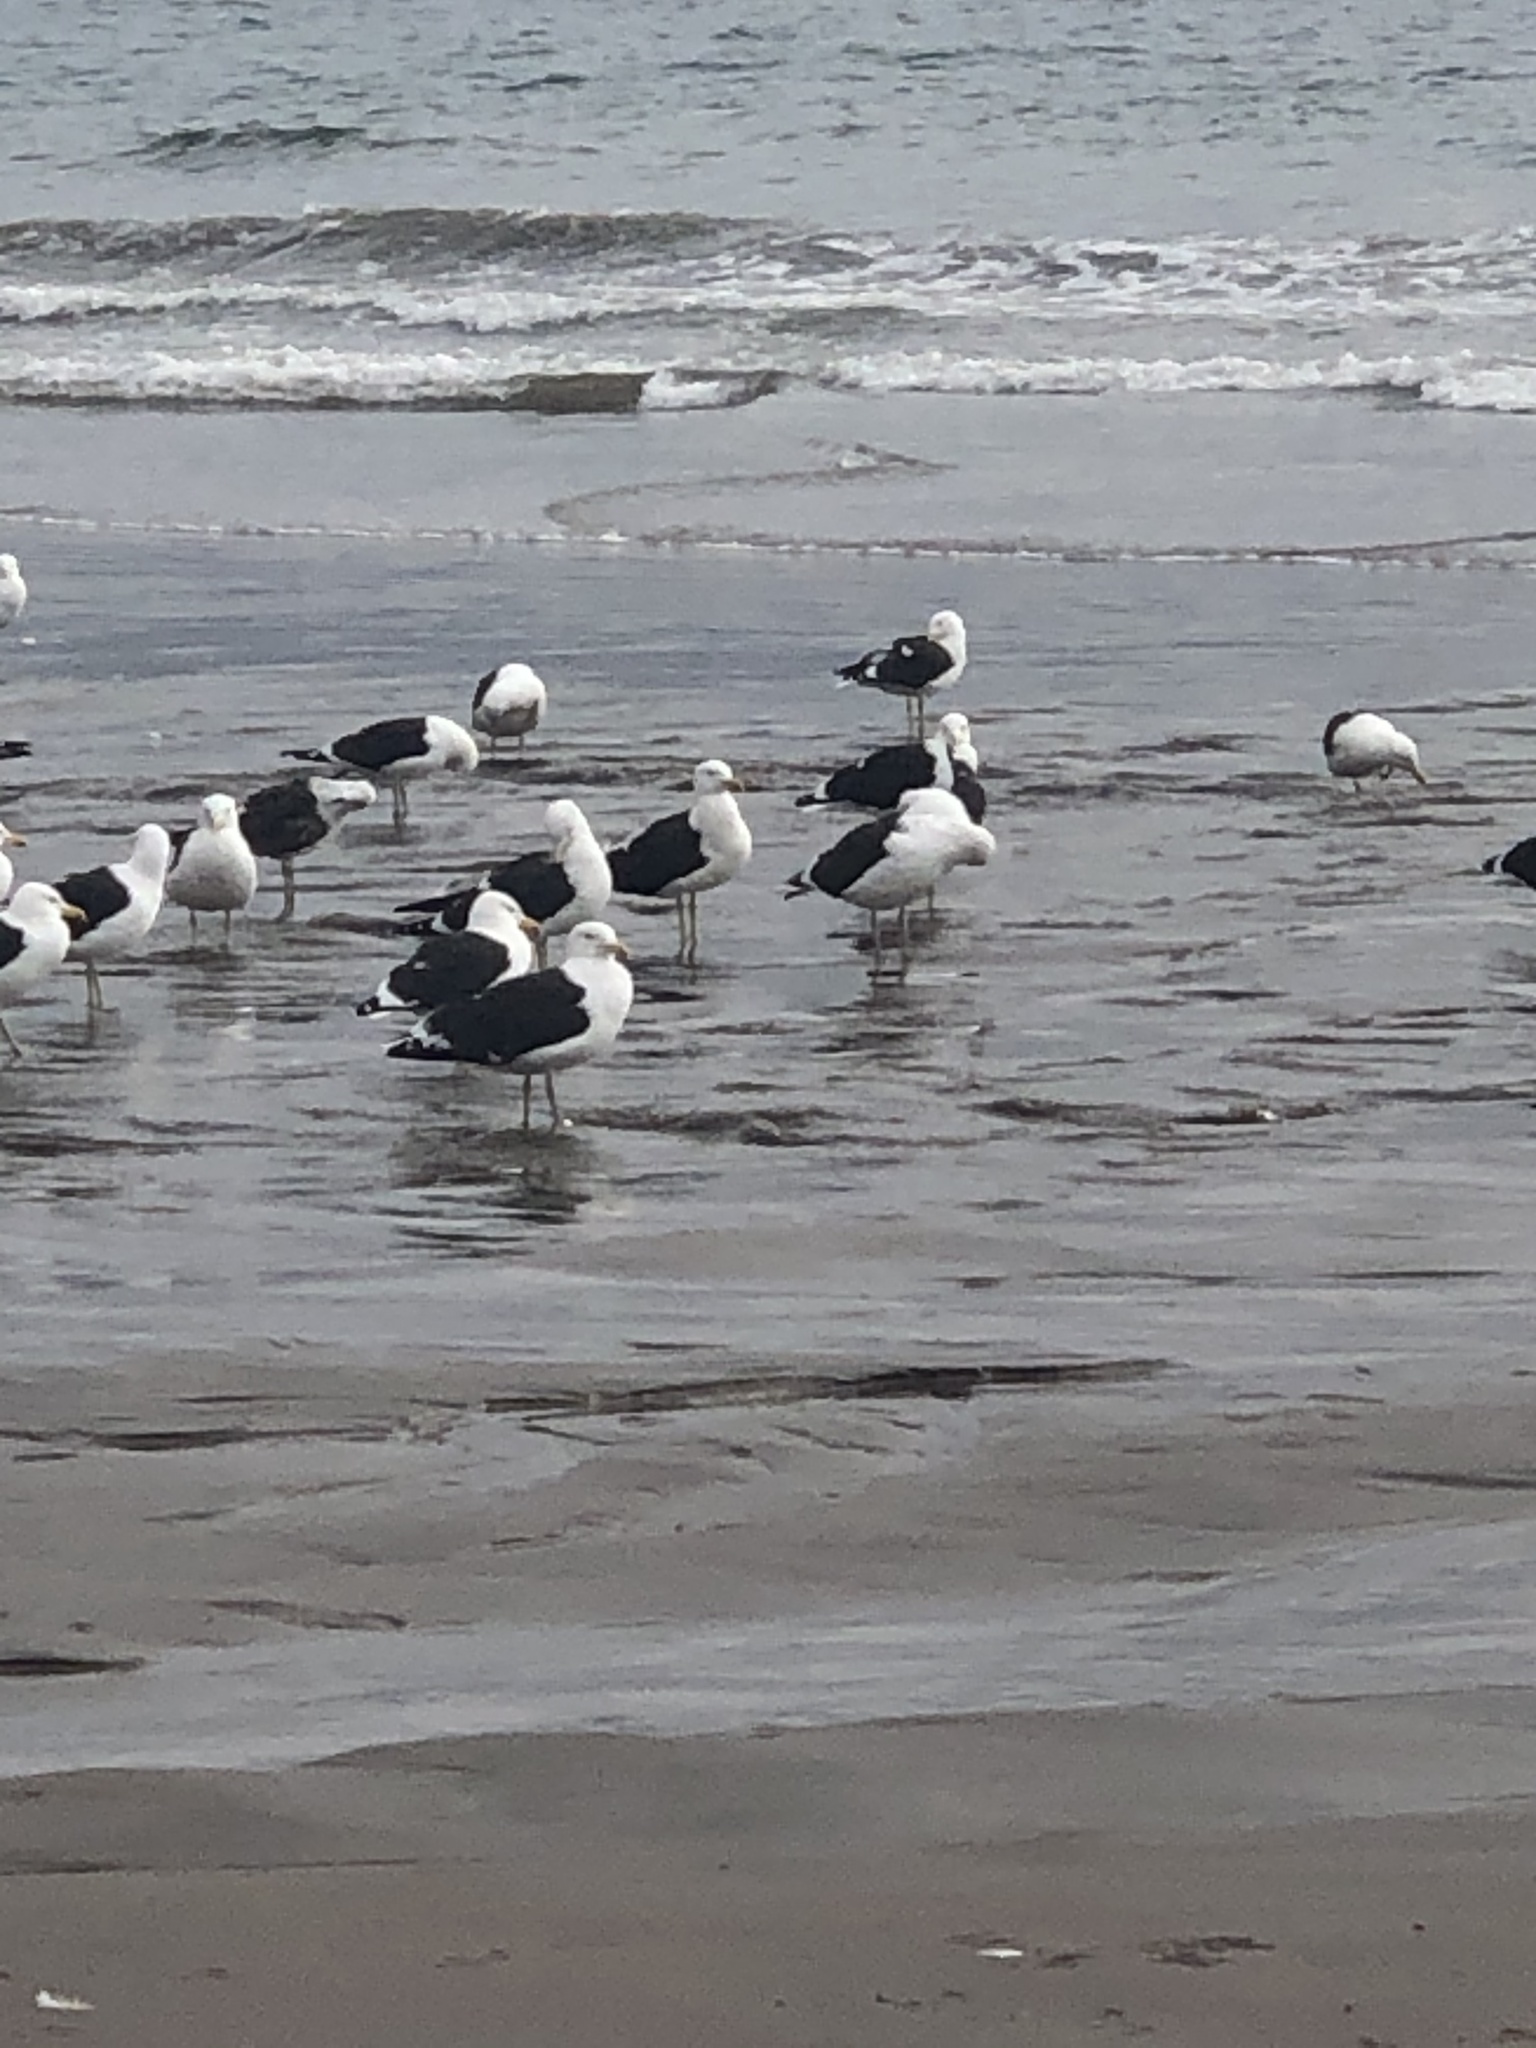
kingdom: Animalia
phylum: Chordata
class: Aves
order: Charadriiformes
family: Laridae
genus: Larus
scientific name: Larus dominicanus
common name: Kelp gull
